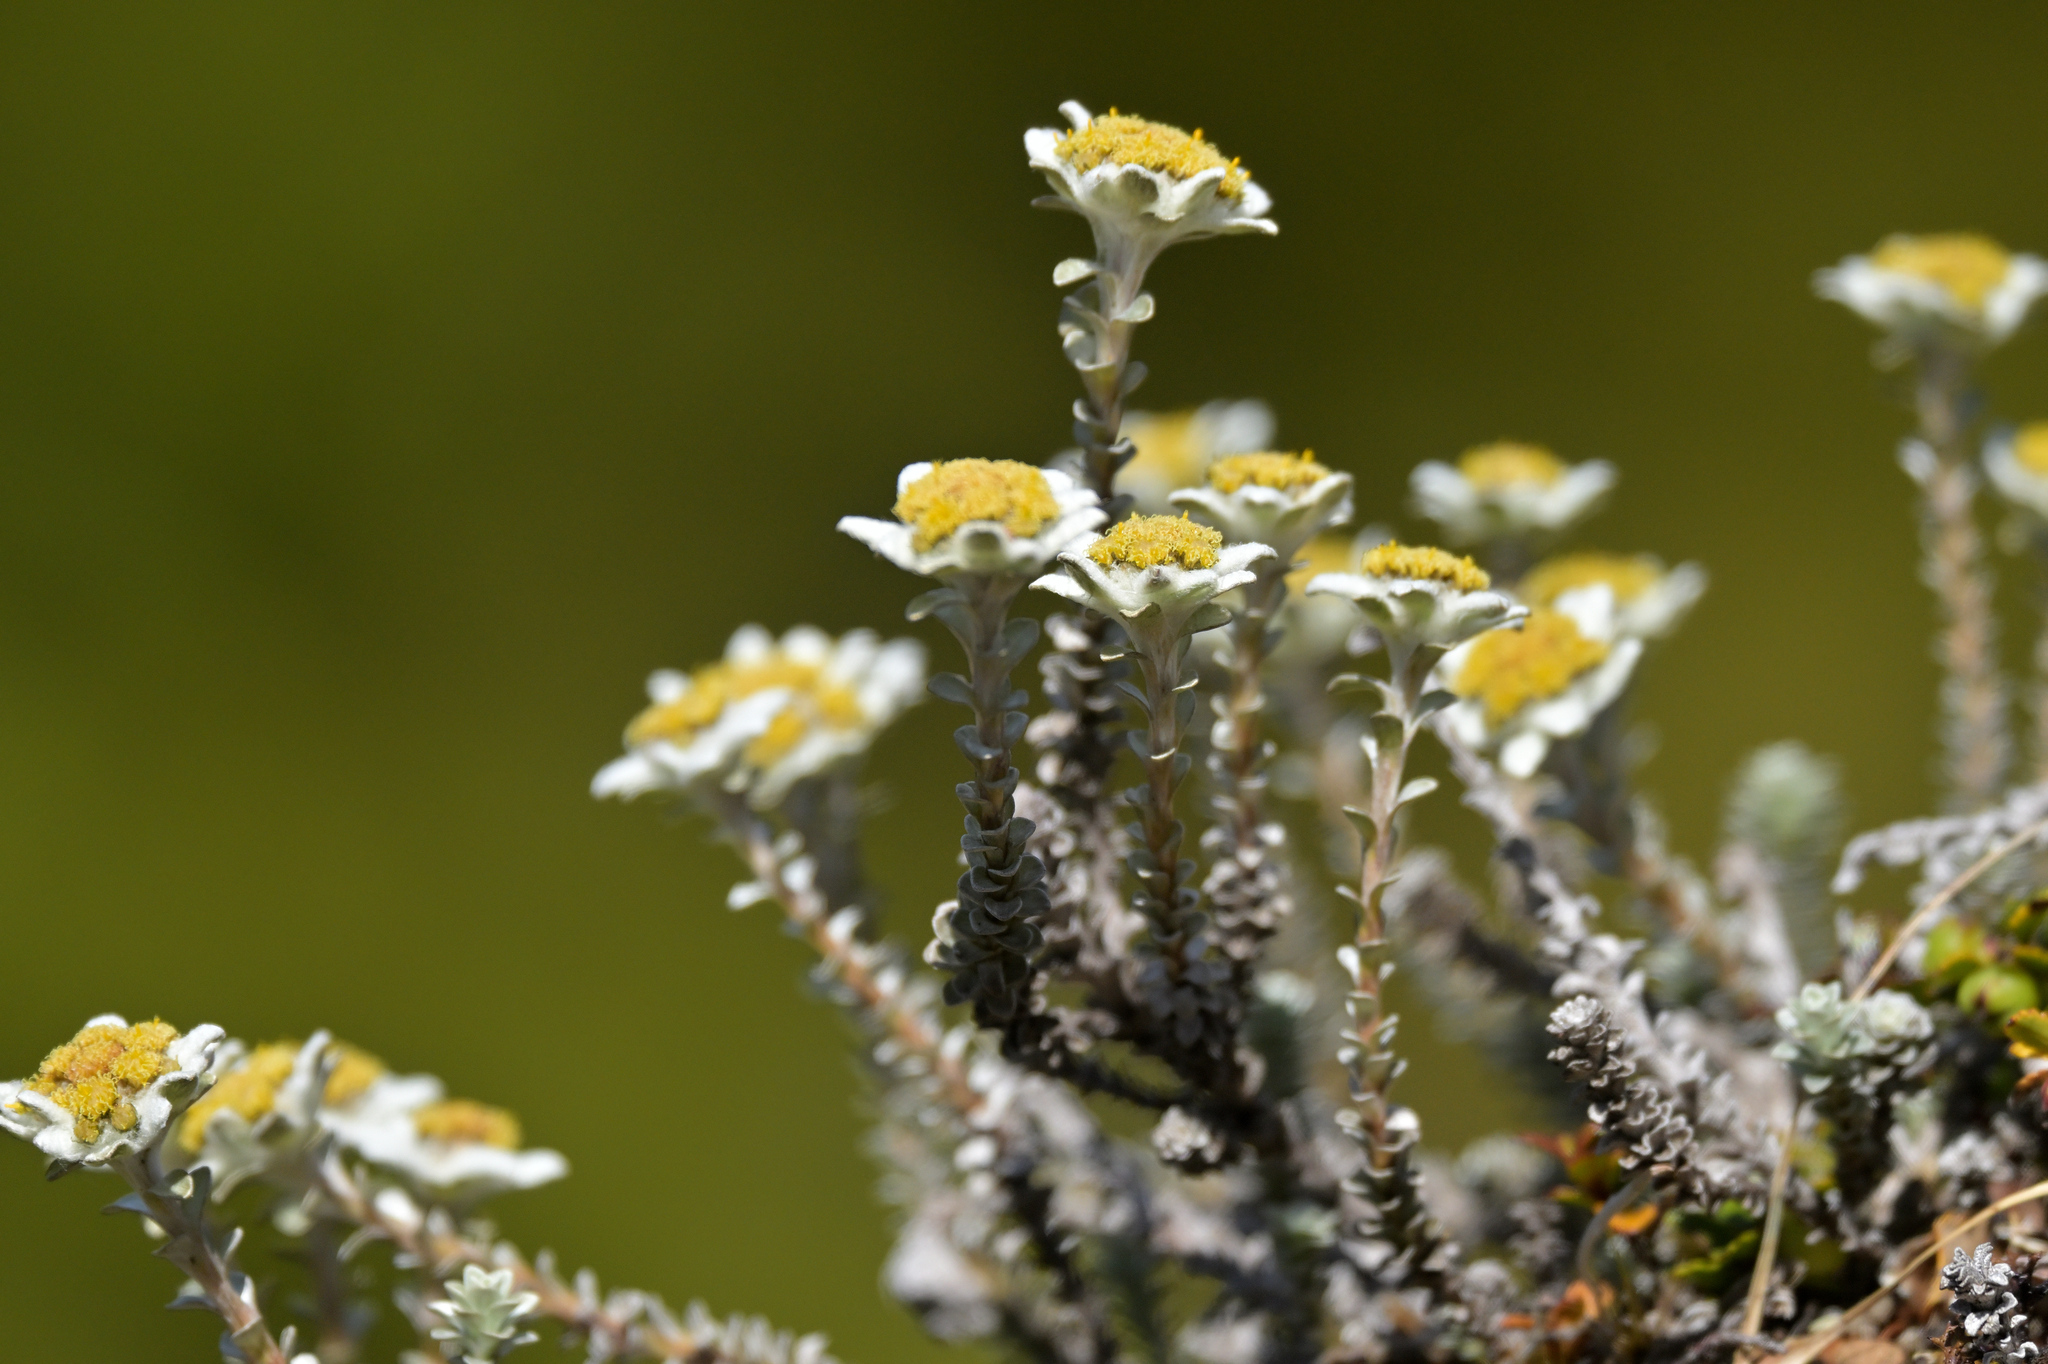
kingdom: Plantae
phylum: Tracheophyta
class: Magnoliopsida
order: Asterales
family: Asteraceae
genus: Leucogenes
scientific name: Leucogenes grandiceps
